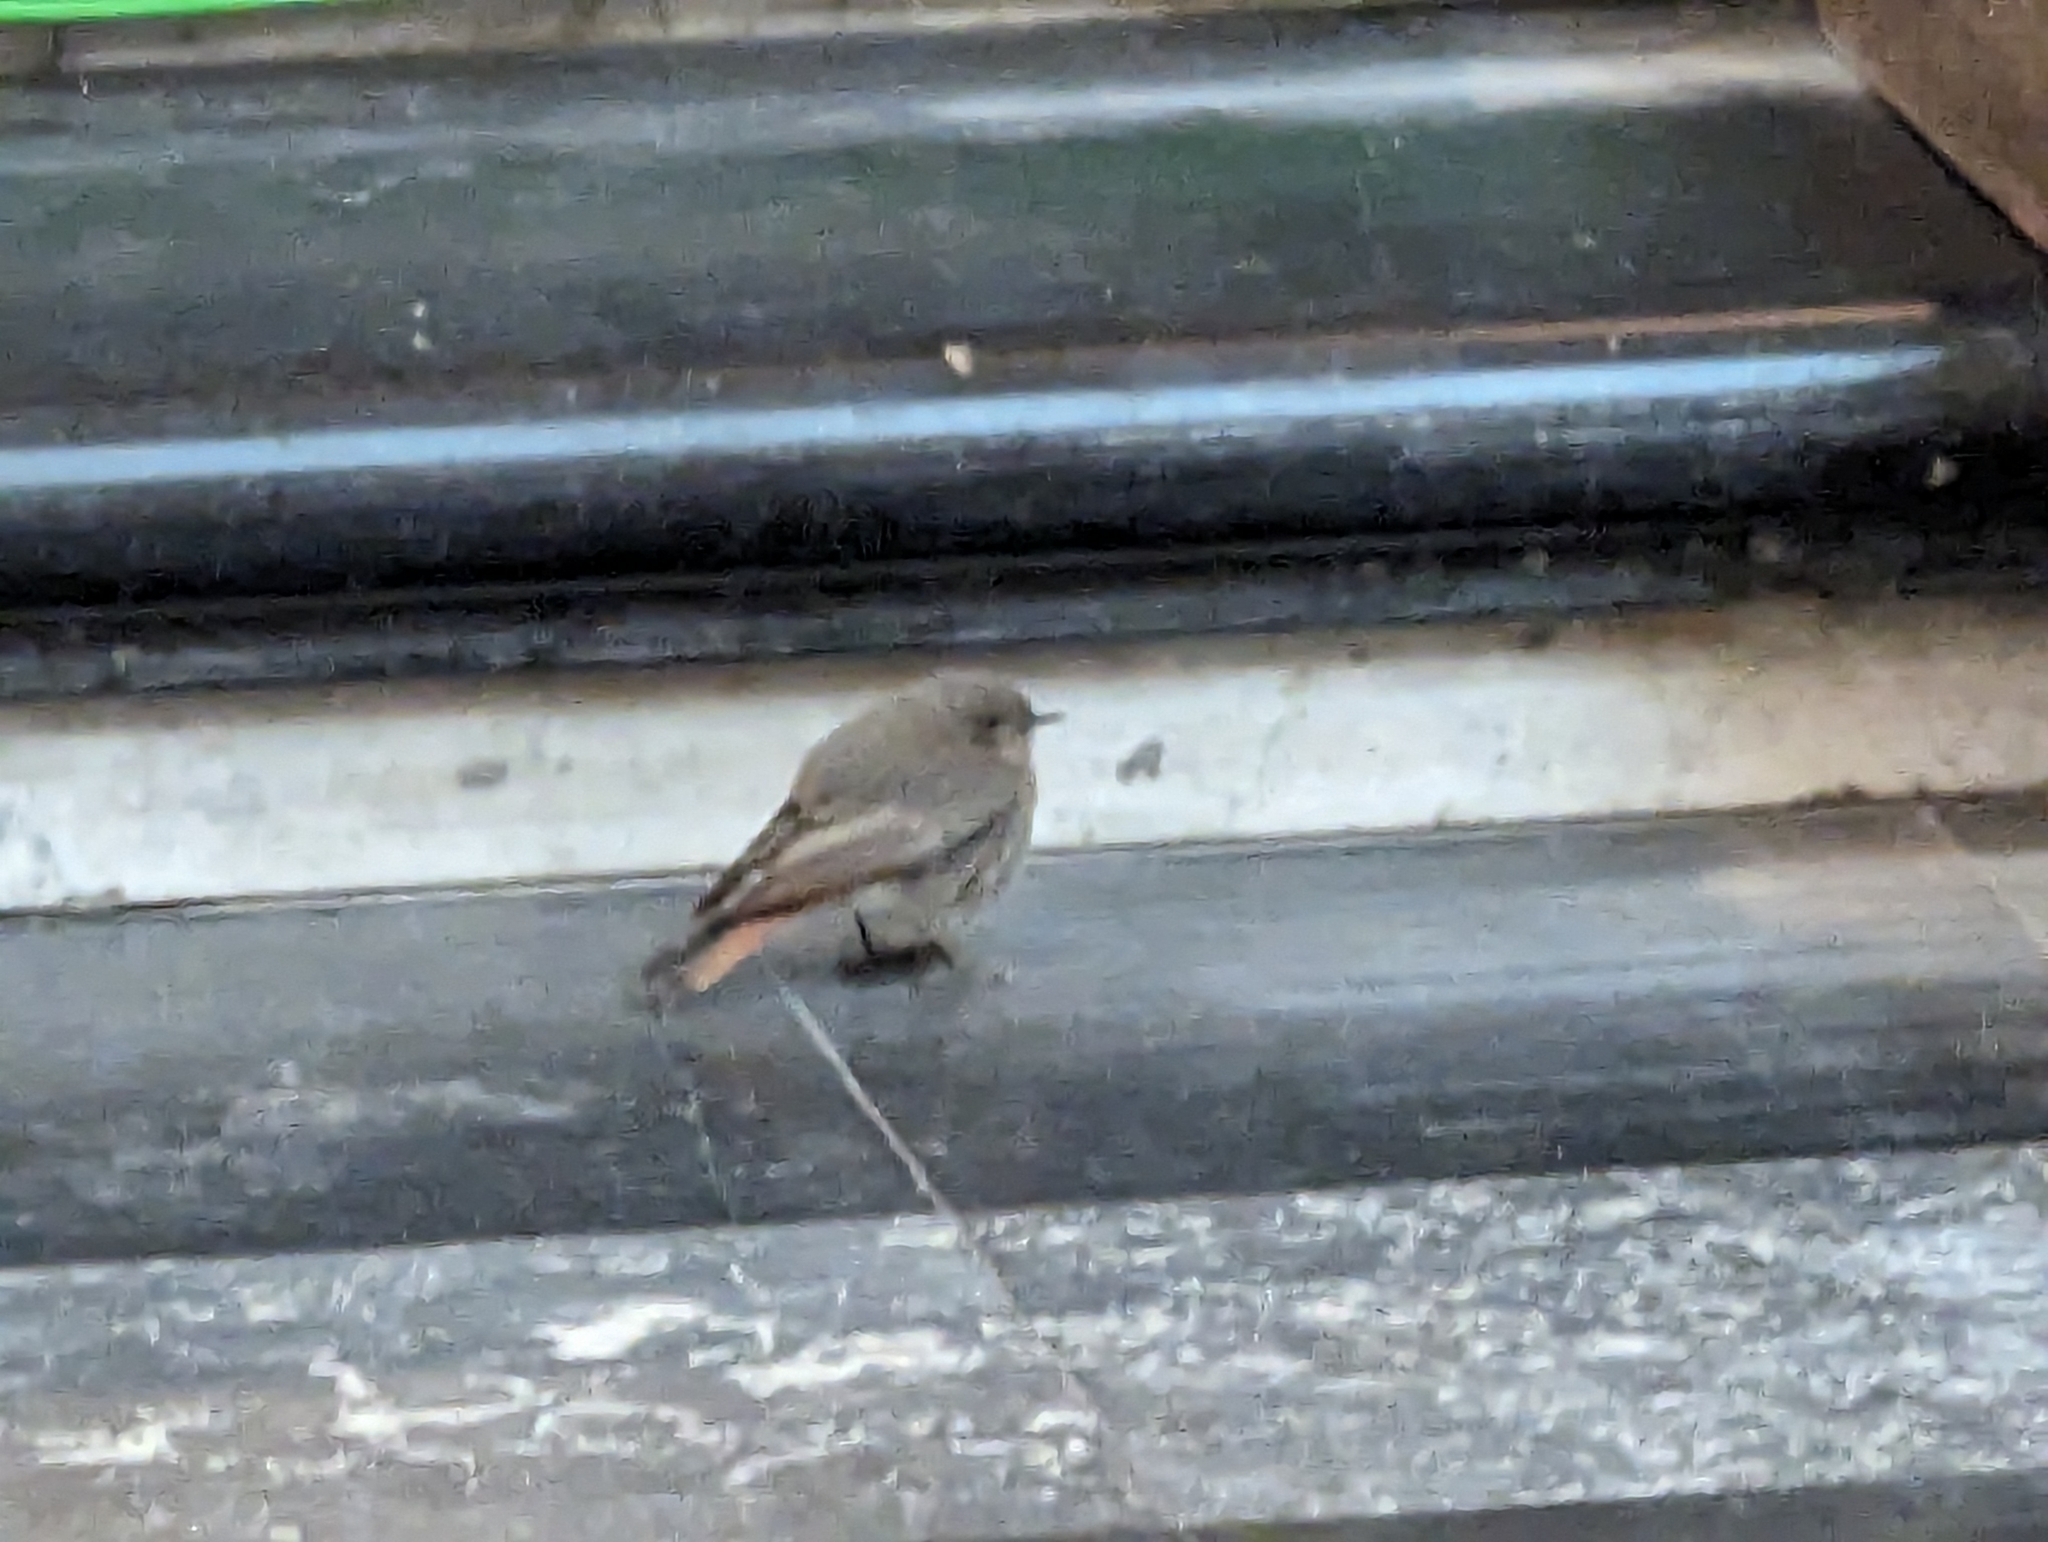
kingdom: Animalia
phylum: Chordata
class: Aves
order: Passeriformes
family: Muscicapidae
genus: Phoenicurus
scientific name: Phoenicurus ochruros
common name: Black redstart
